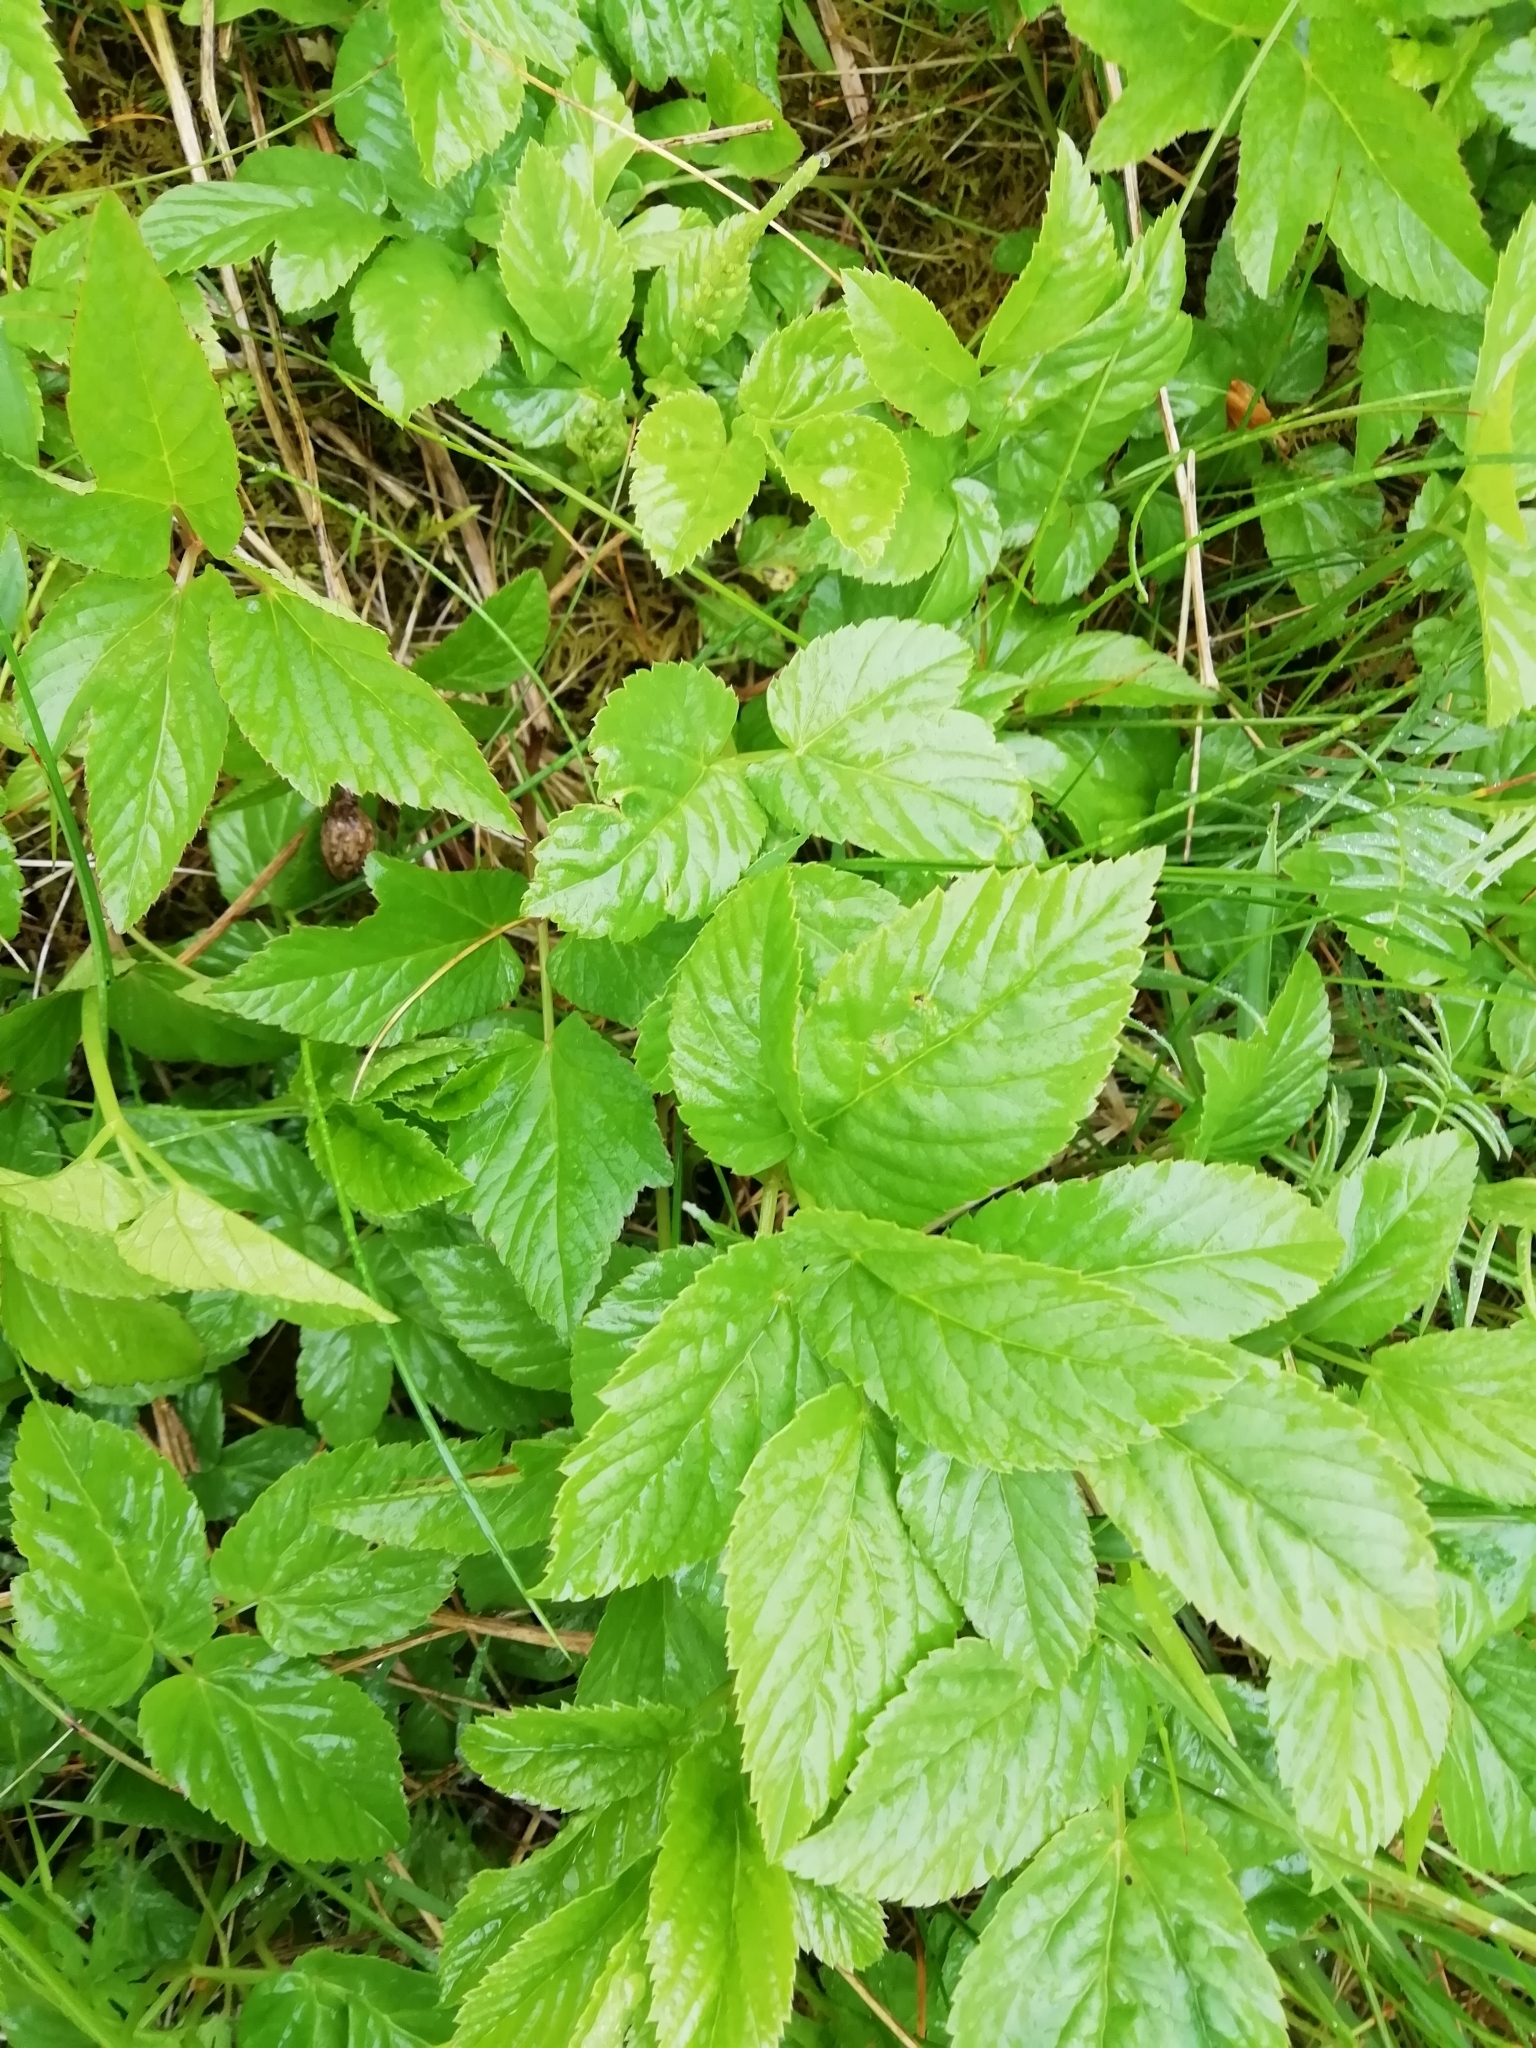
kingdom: Plantae
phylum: Tracheophyta
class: Magnoliopsida
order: Apiales
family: Apiaceae
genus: Aegopodium
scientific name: Aegopodium podagraria
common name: Ground-elder
